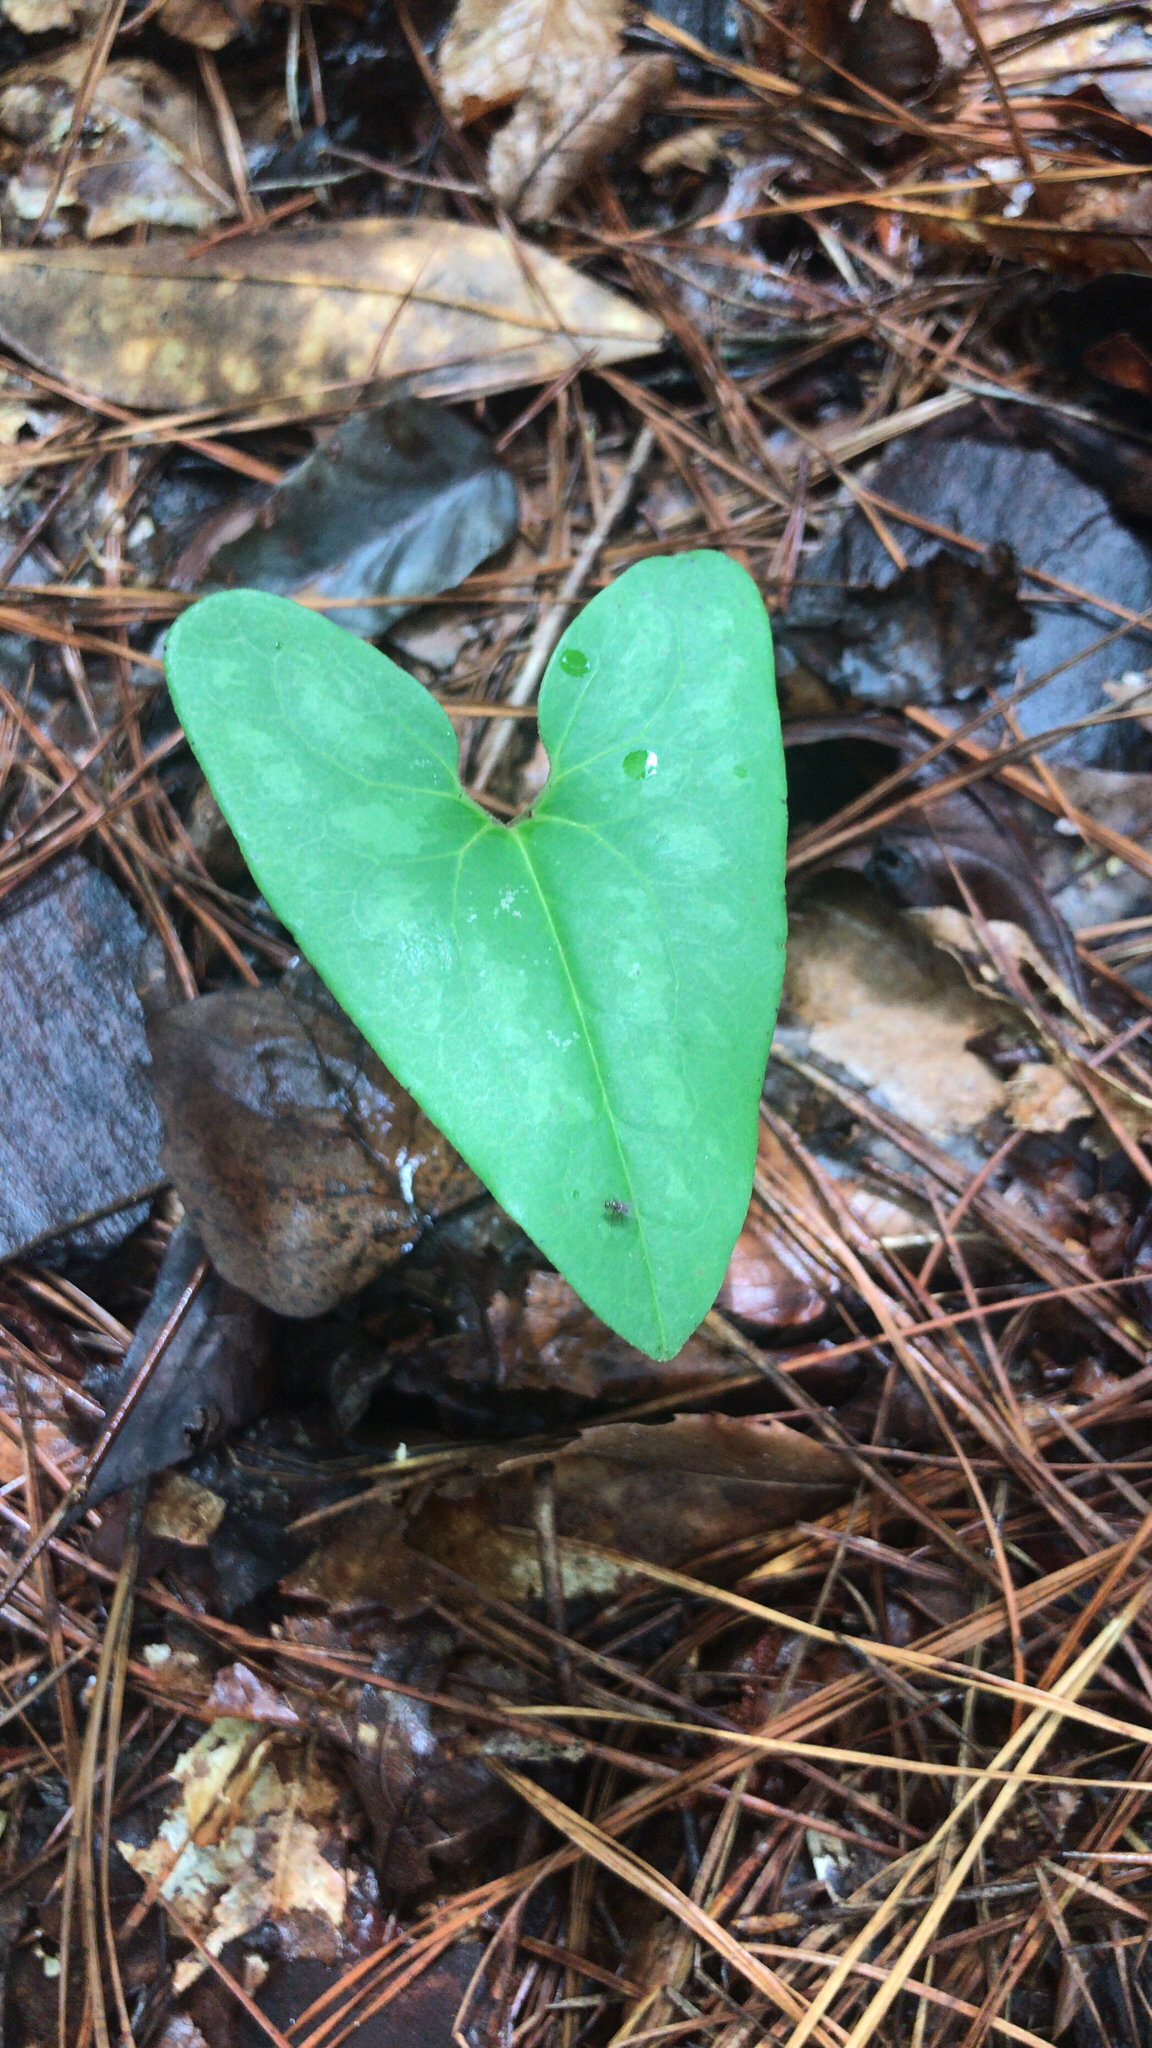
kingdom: Plantae
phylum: Tracheophyta
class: Magnoliopsida
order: Piperales
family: Aristolochiaceae
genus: Hexastylis
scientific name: Hexastylis arifolia
